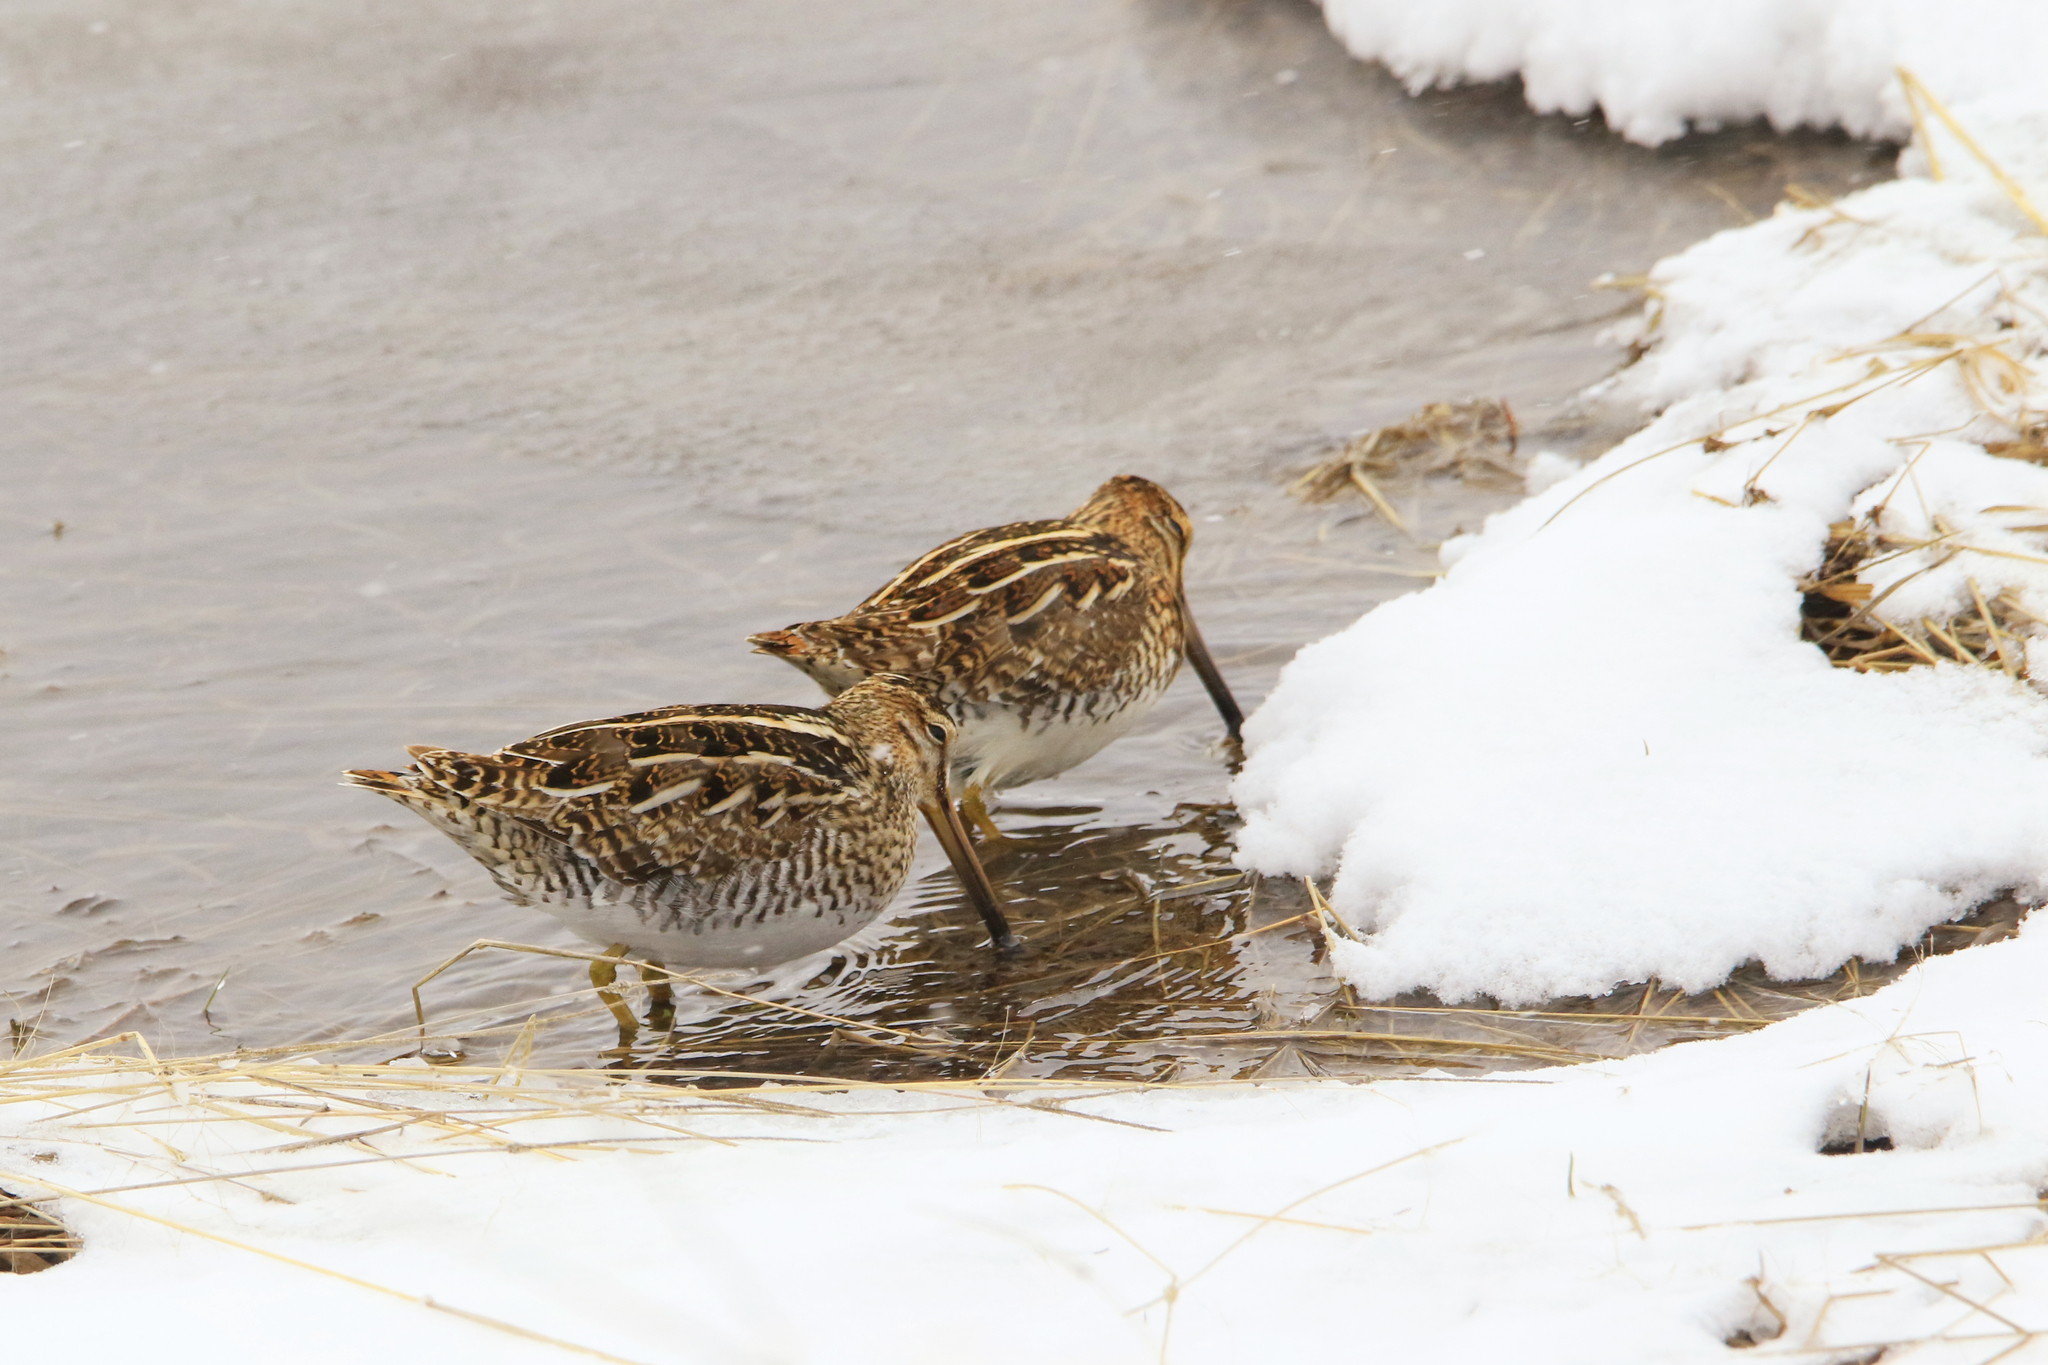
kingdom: Animalia
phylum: Chordata
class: Aves
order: Charadriiformes
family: Scolopacidae
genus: Gallinago
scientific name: Gallinago gallinago
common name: Common snipe
